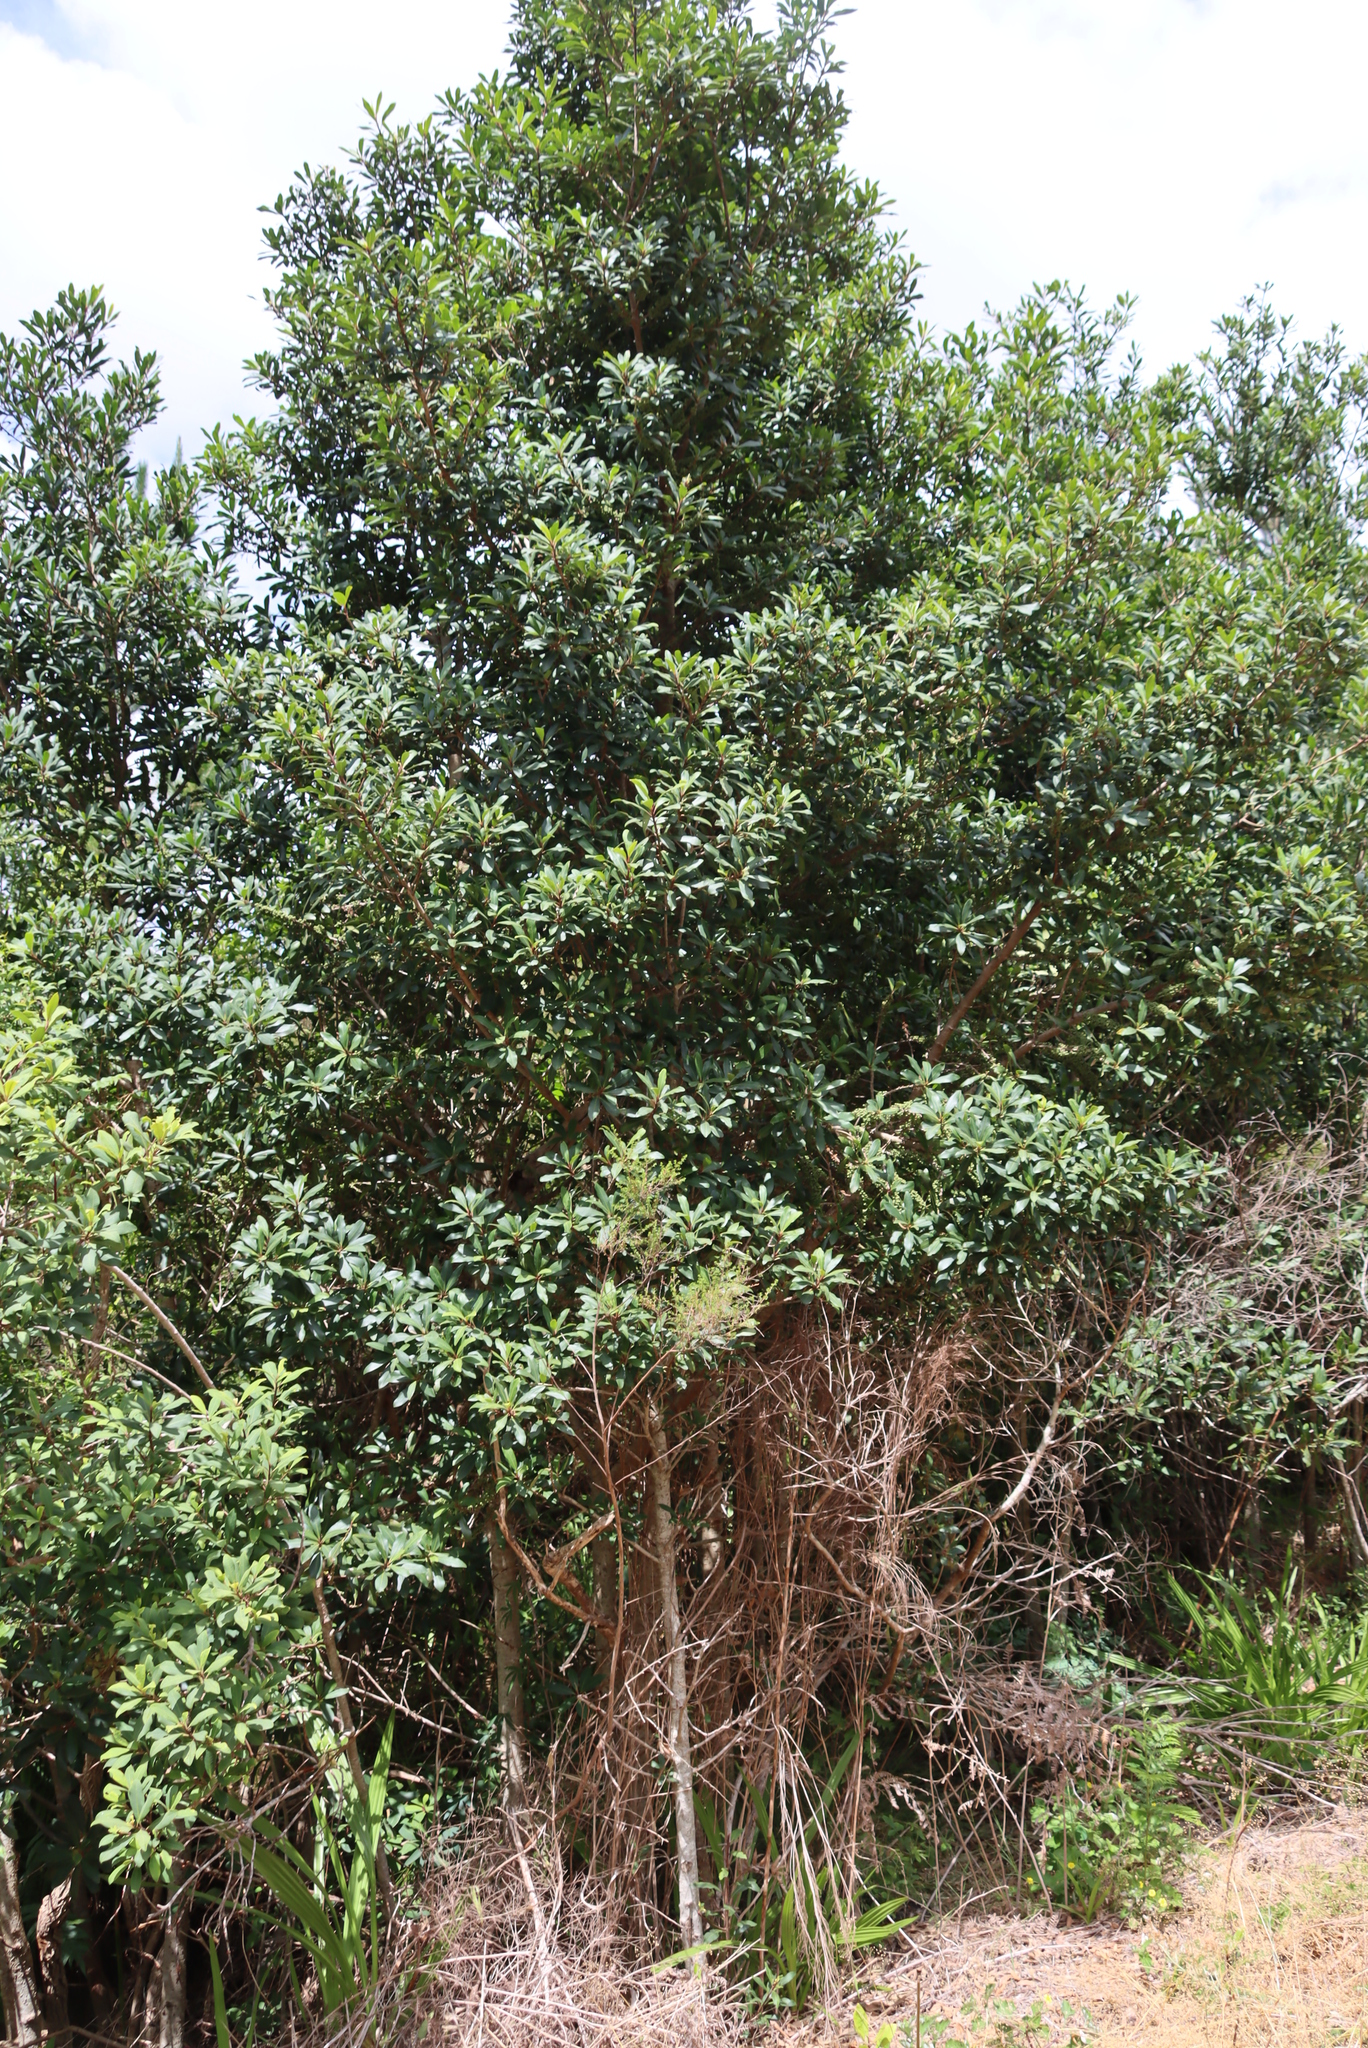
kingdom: Plantae
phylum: Tracheophyta
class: Magnoliopsida
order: Ericales
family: Primulaceae
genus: Myrsine
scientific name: Myrsine melanophloeos
